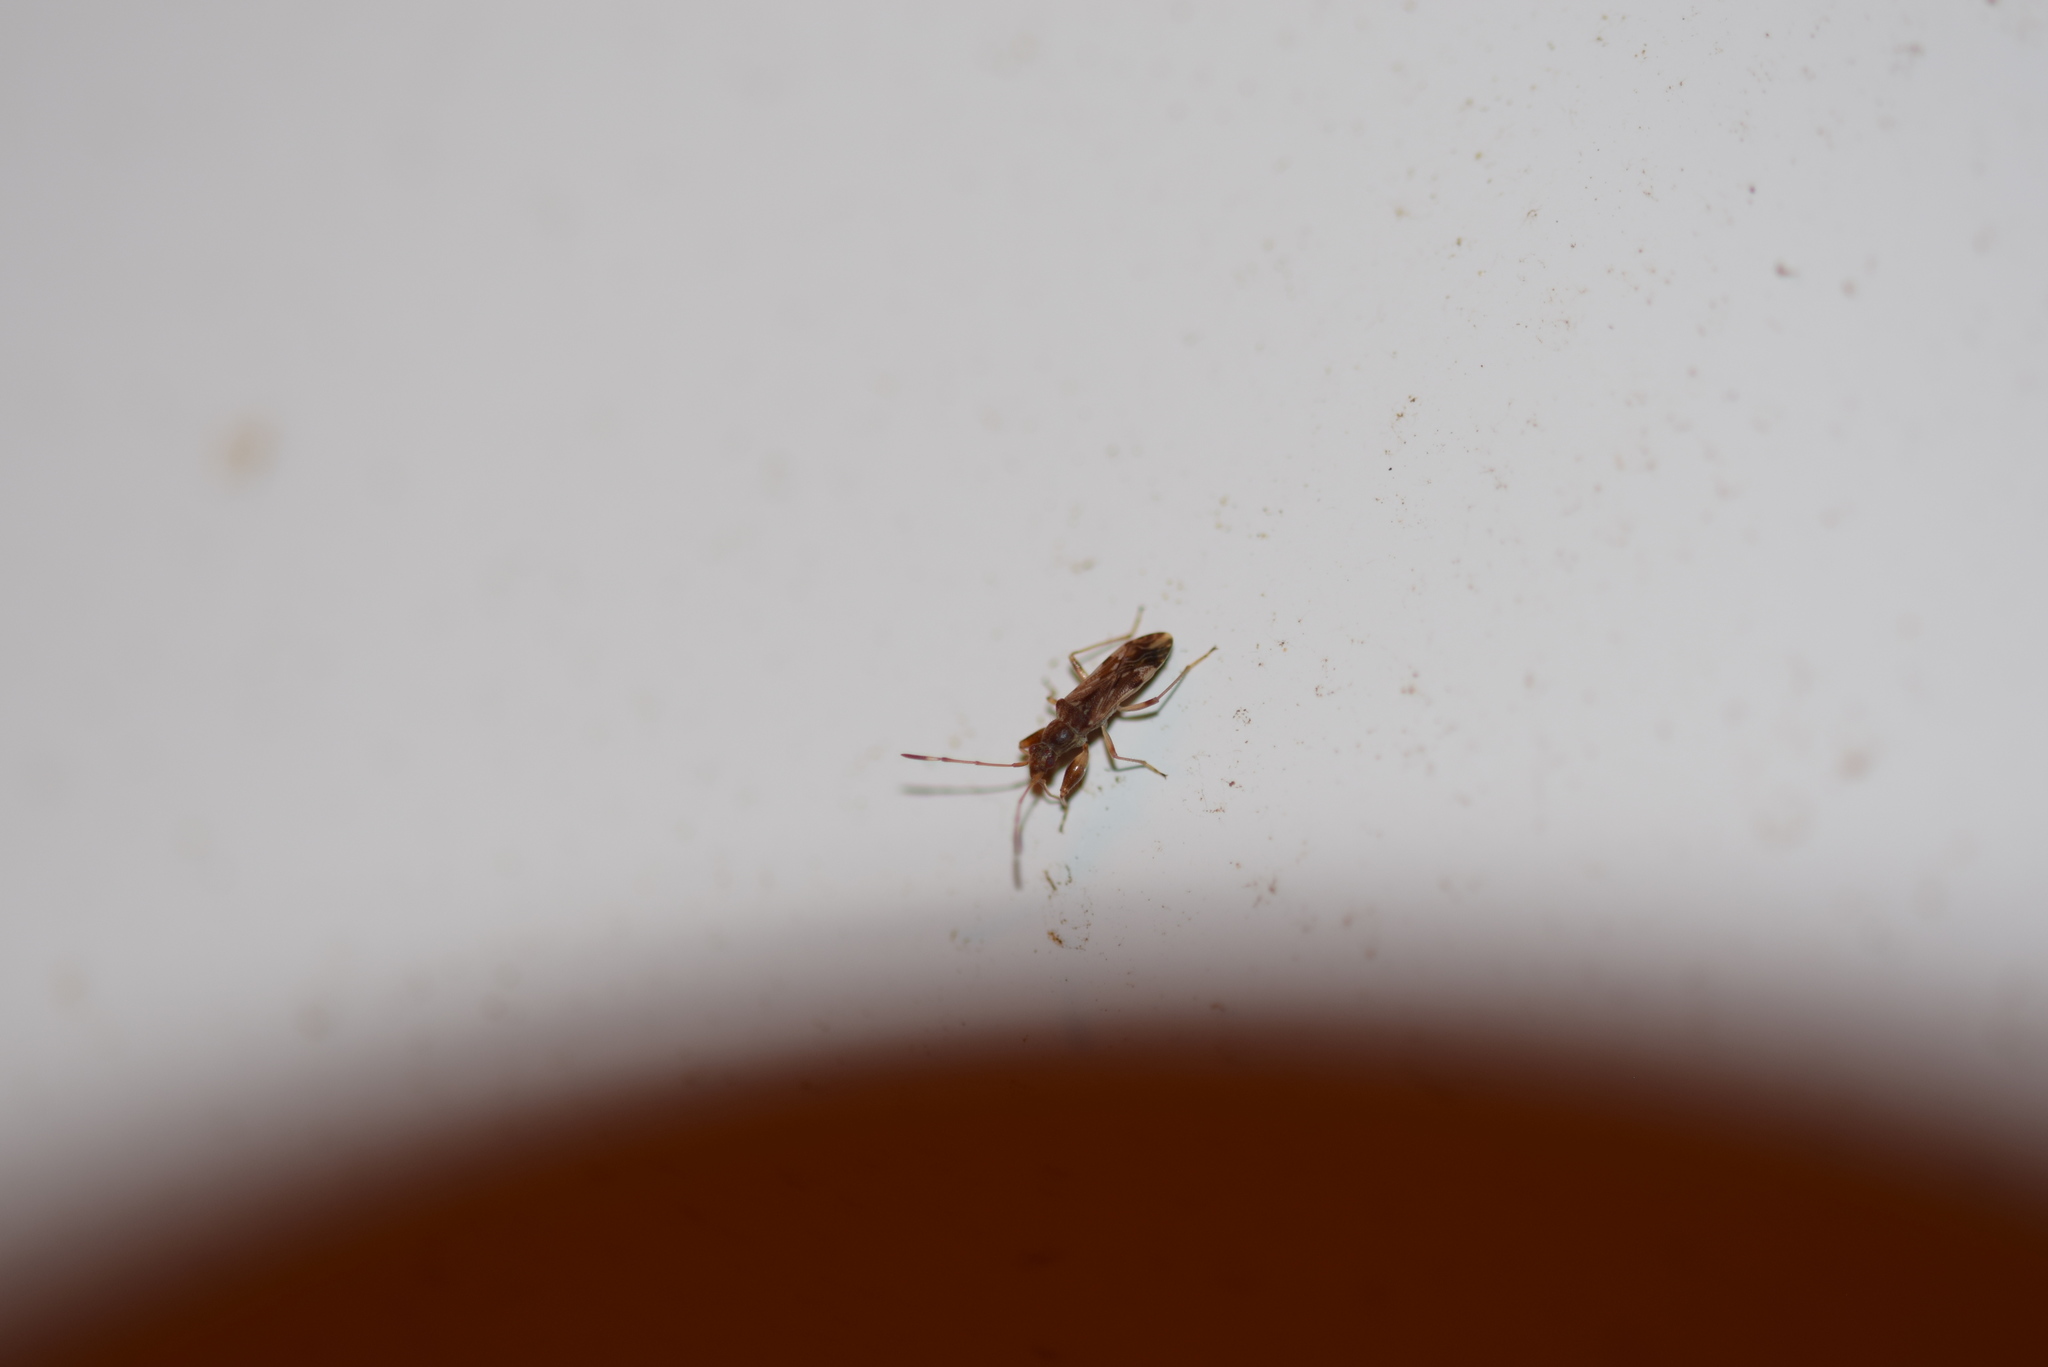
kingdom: Animalia
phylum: Arthropoda
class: Insecta
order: Hemiptera
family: Rhyparochromidae
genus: Neopamera
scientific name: Neopamera albocincta
